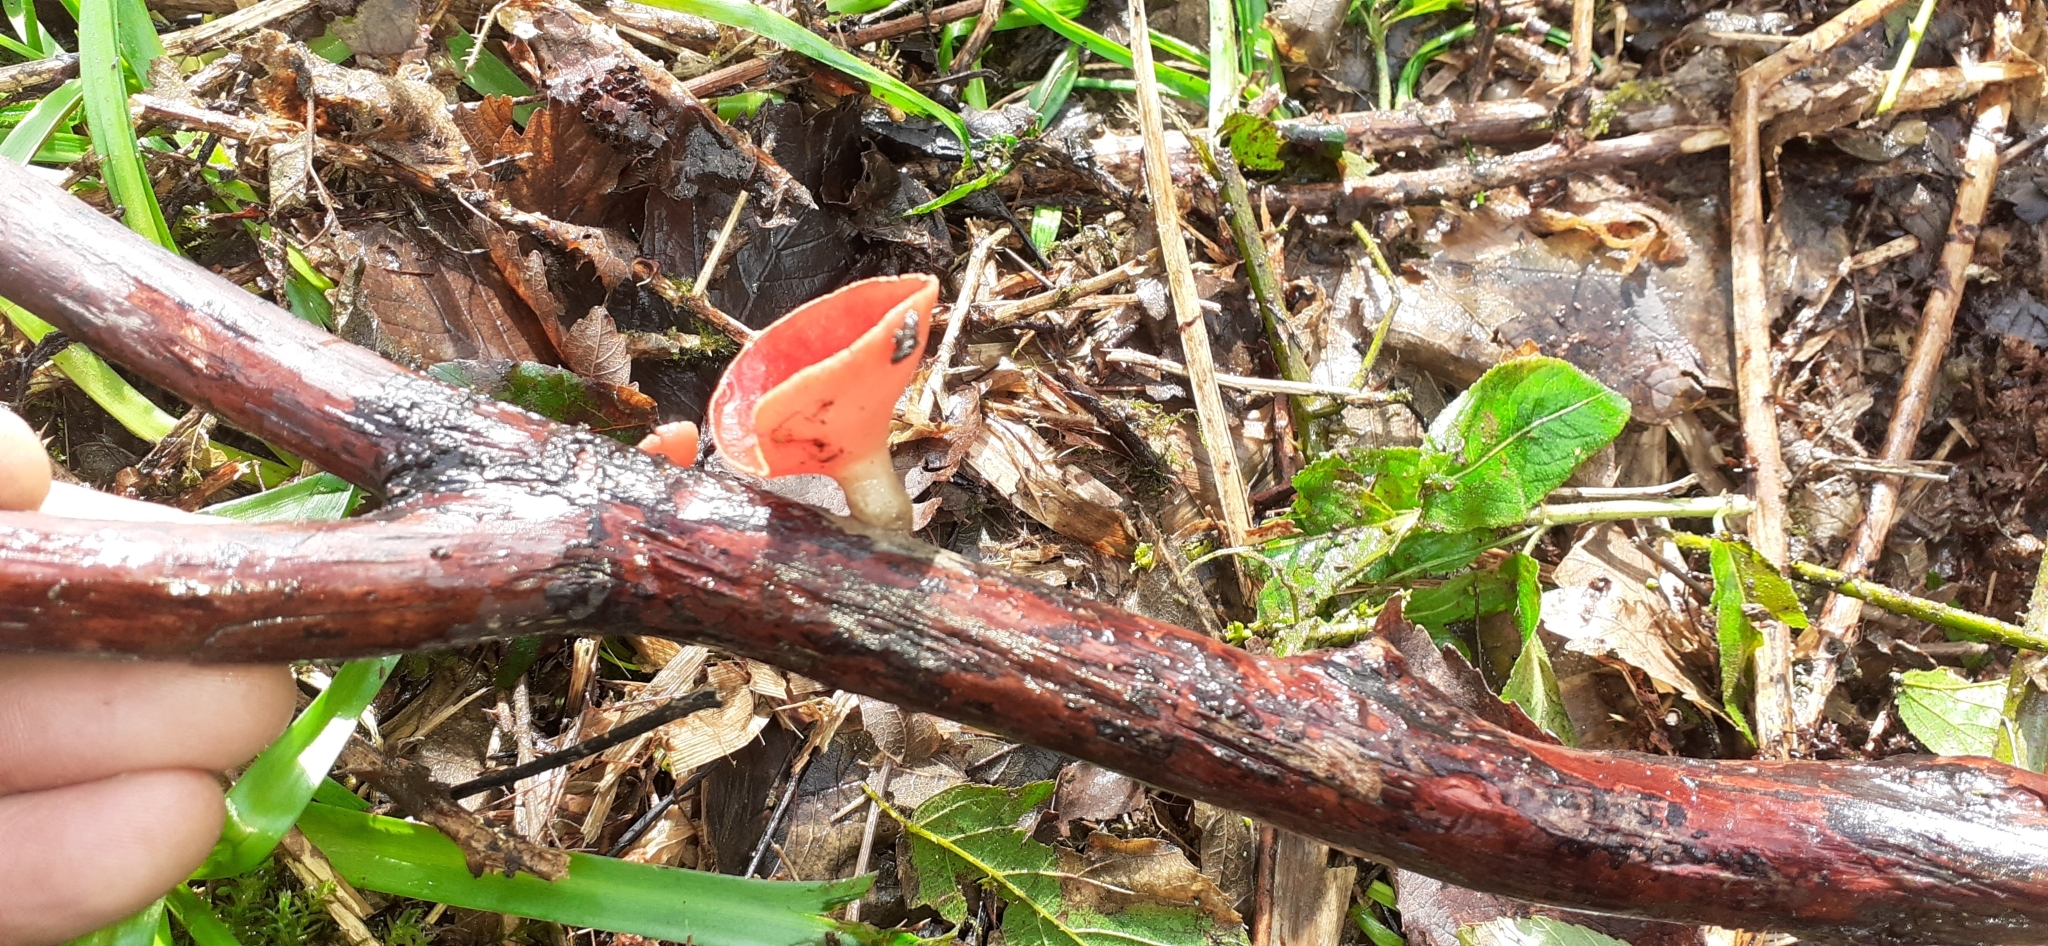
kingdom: Fungi
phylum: Ascomycota
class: Pezizomycetes
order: Pezizales
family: Sarcoscyphaceae
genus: Sarcoscypha
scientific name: Sarcoscypha
